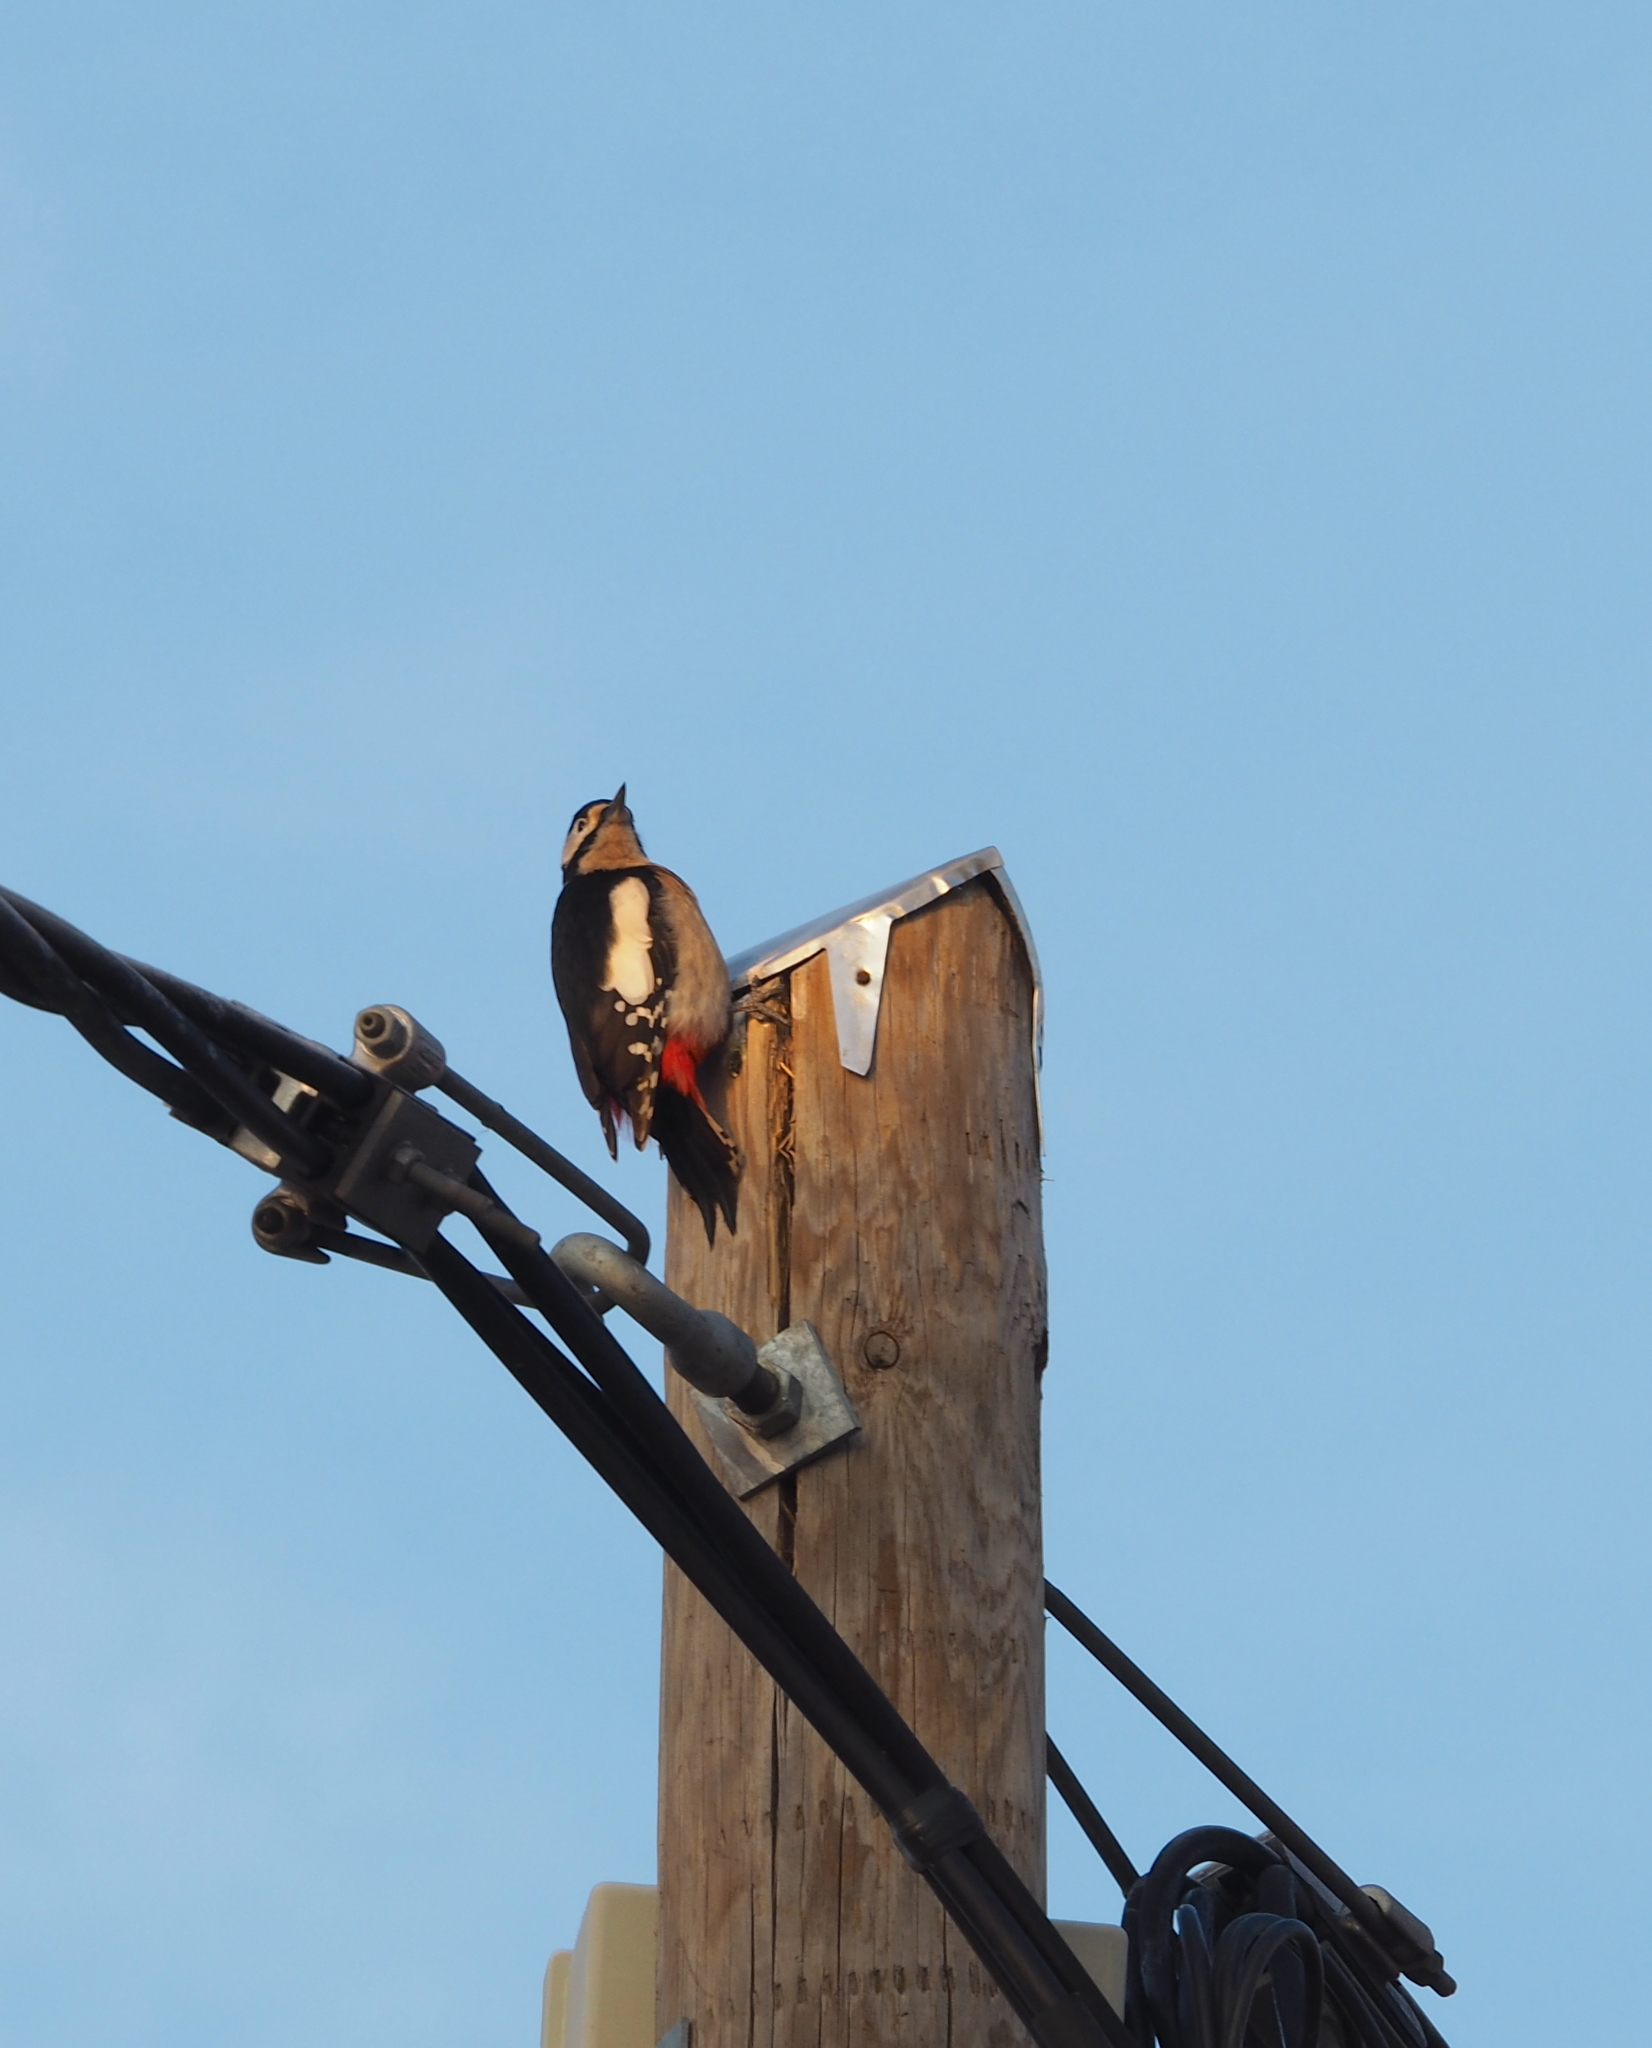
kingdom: Animalia
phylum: Chordata
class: Aves
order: Piciformes
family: Picidae
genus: Dendrocopos
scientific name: Dendrocopos major
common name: Great spotted woodpecker
